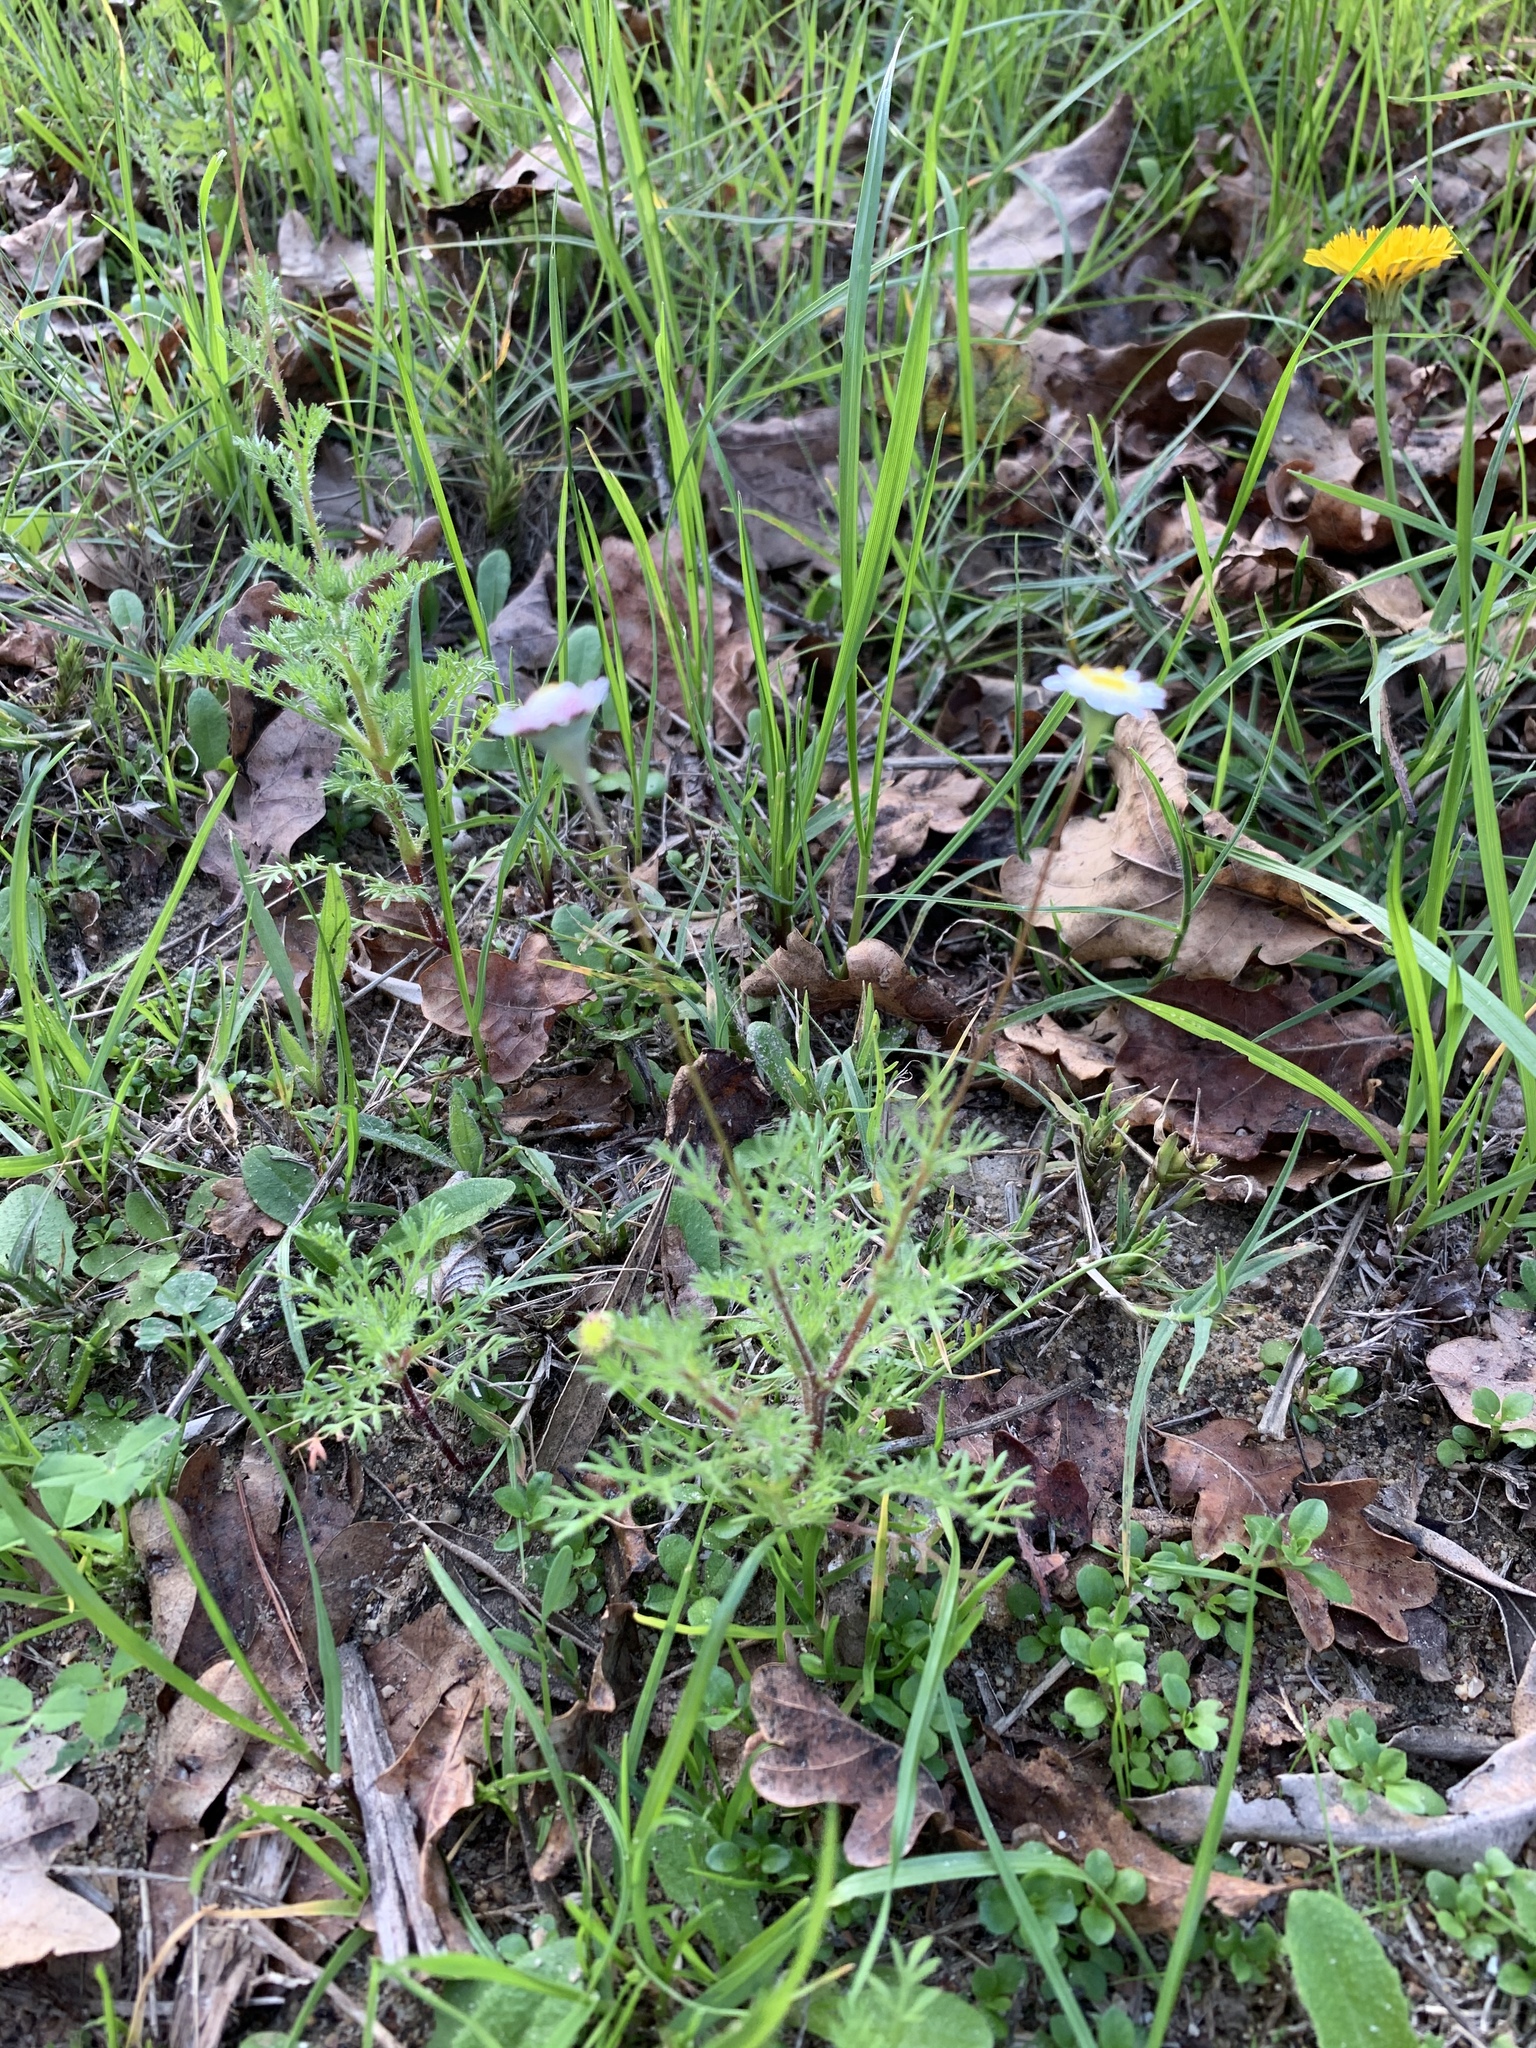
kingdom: Plantae
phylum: Tracheophyta
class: Magnoliopsida
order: Asterales
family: Asteraceae
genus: Cotula
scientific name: Cotula turbinata
